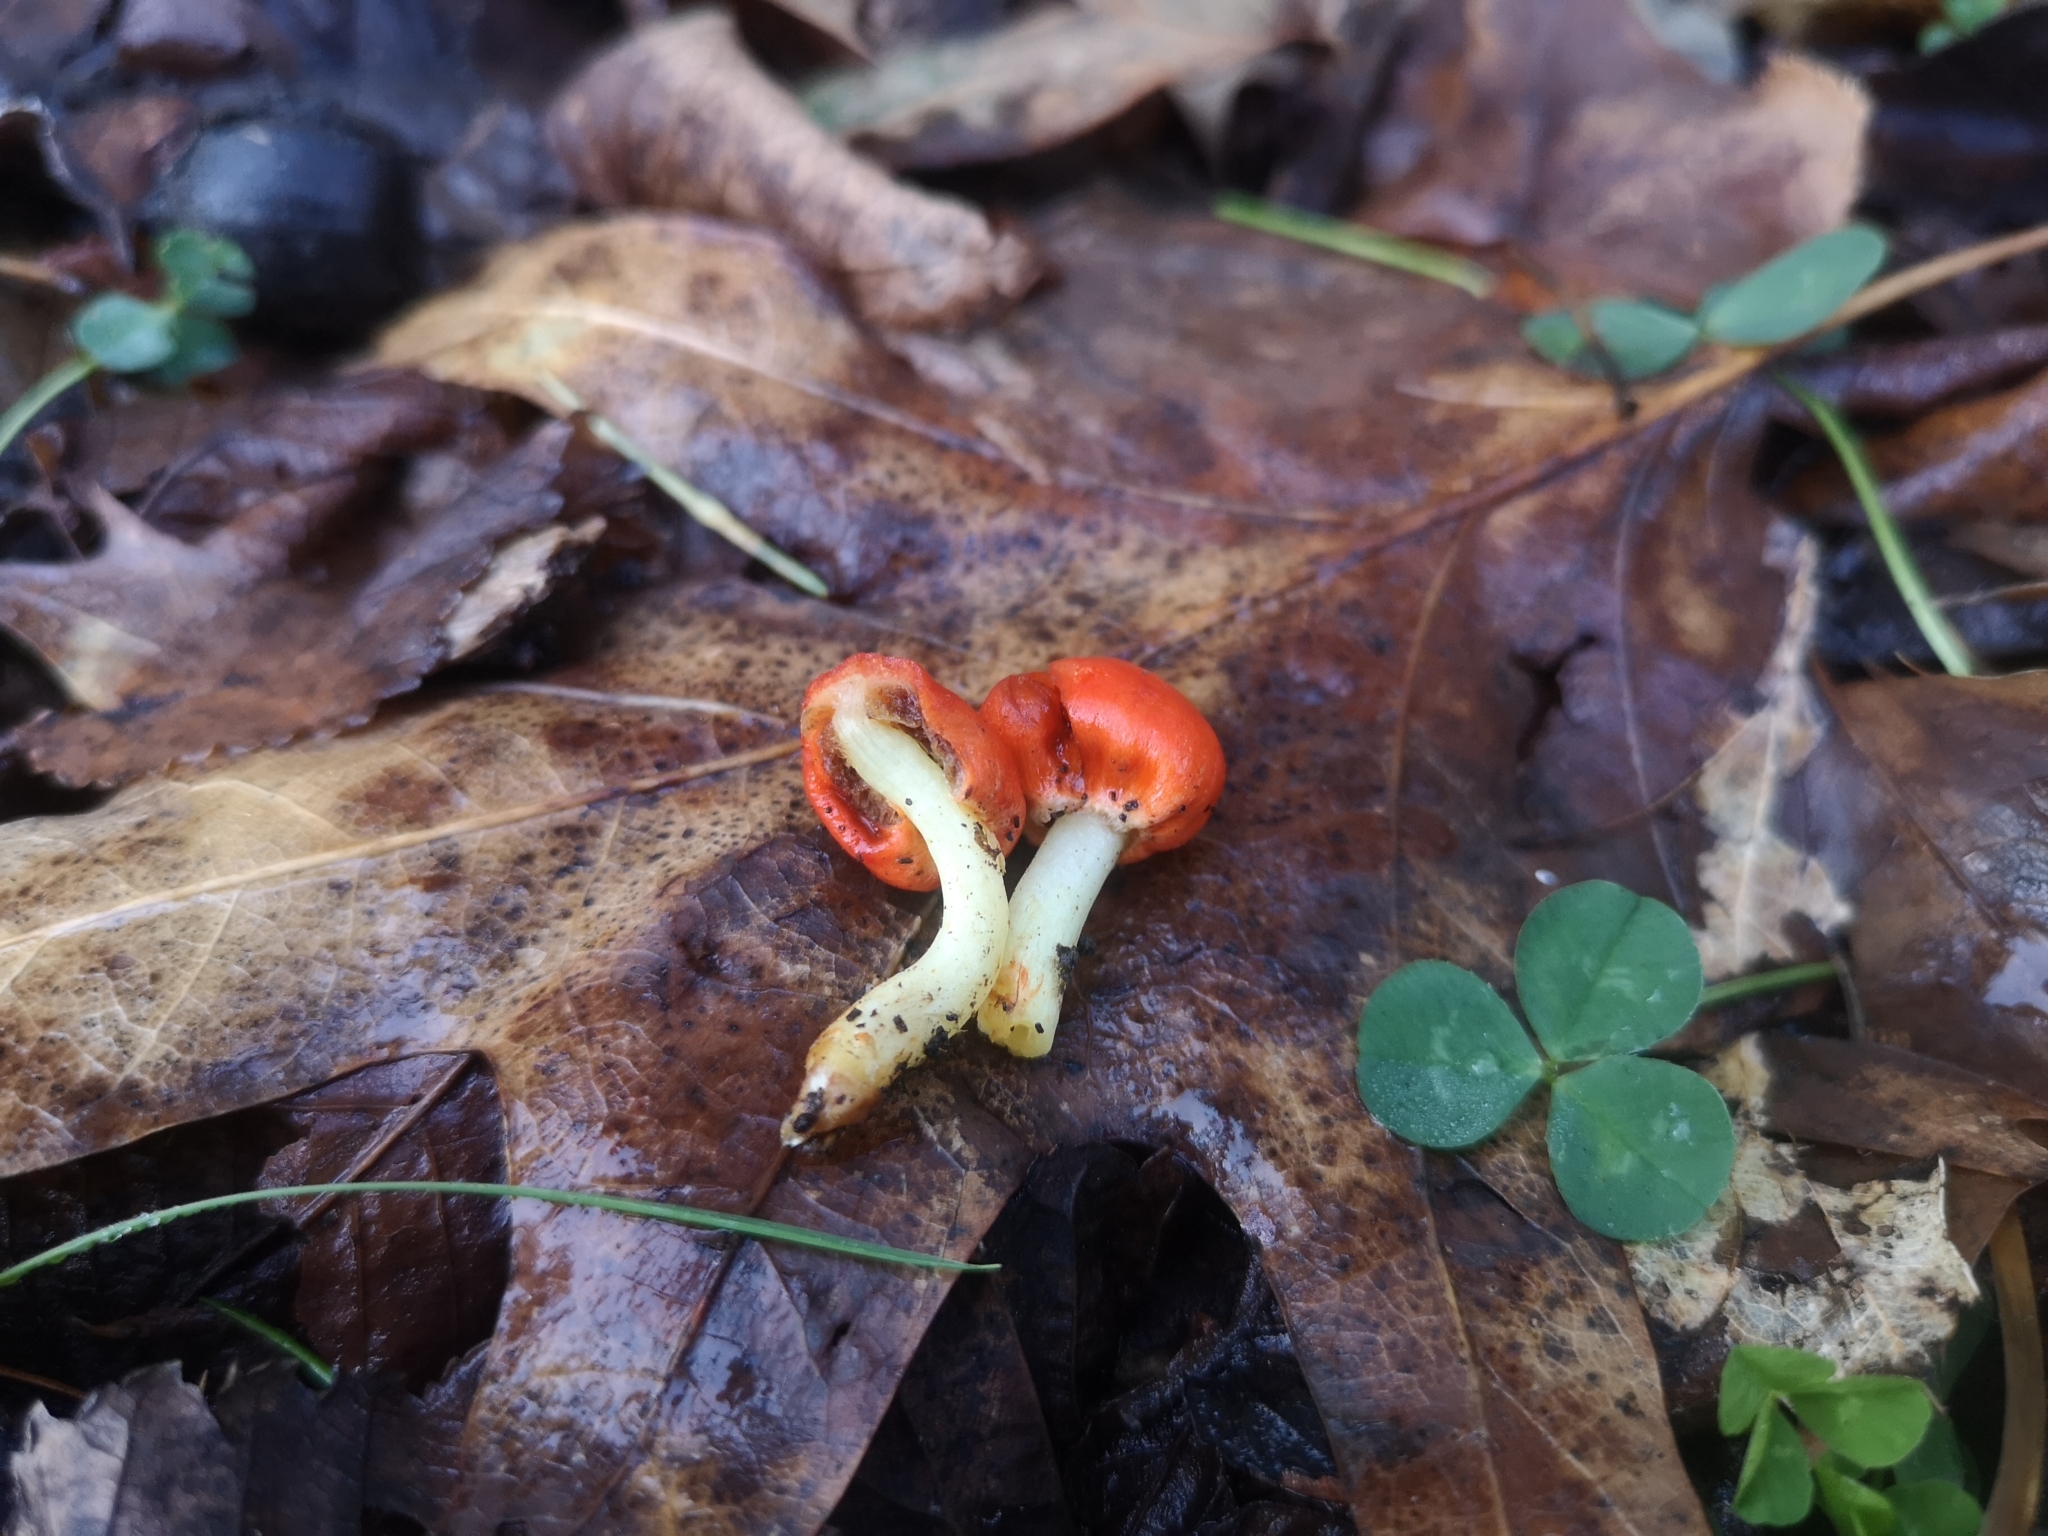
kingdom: Fungi
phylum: Basidiomycota
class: Agaricomycetes
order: Agaricales
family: Strophariaceae
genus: Leratiomyces
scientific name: Leratiomyces erythrocephalus
